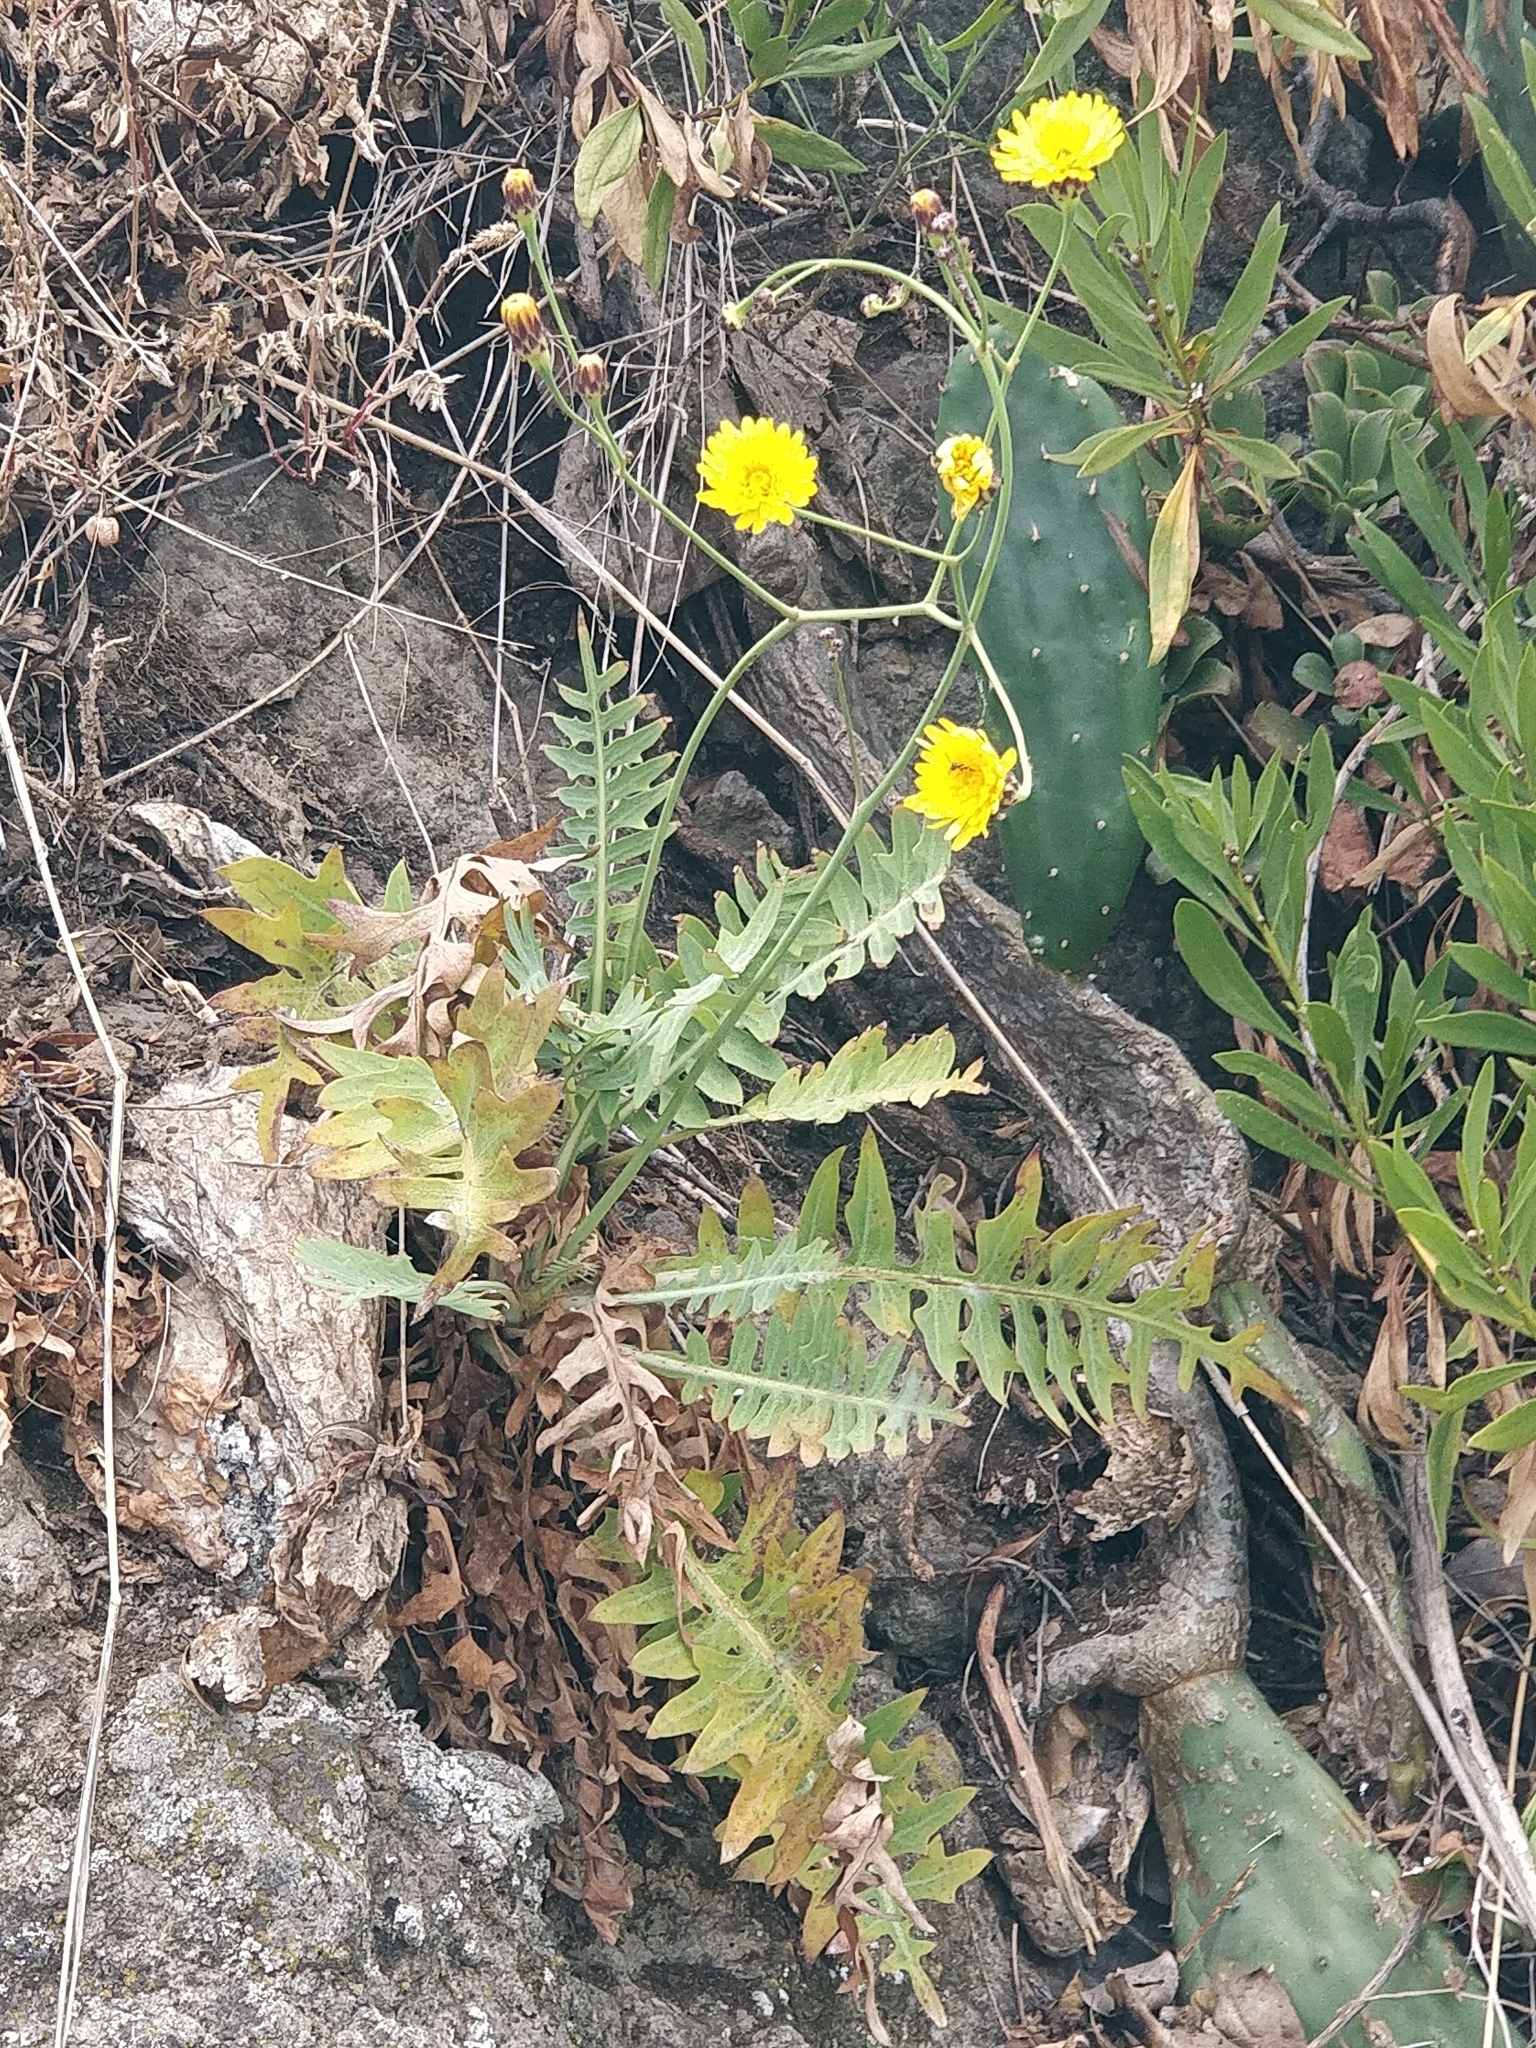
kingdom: Plantae
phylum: Tracheophyta
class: Magnoliopsida
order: Asterales
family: Asteraceae
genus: Sonchus
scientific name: Sonchus ustulatus
